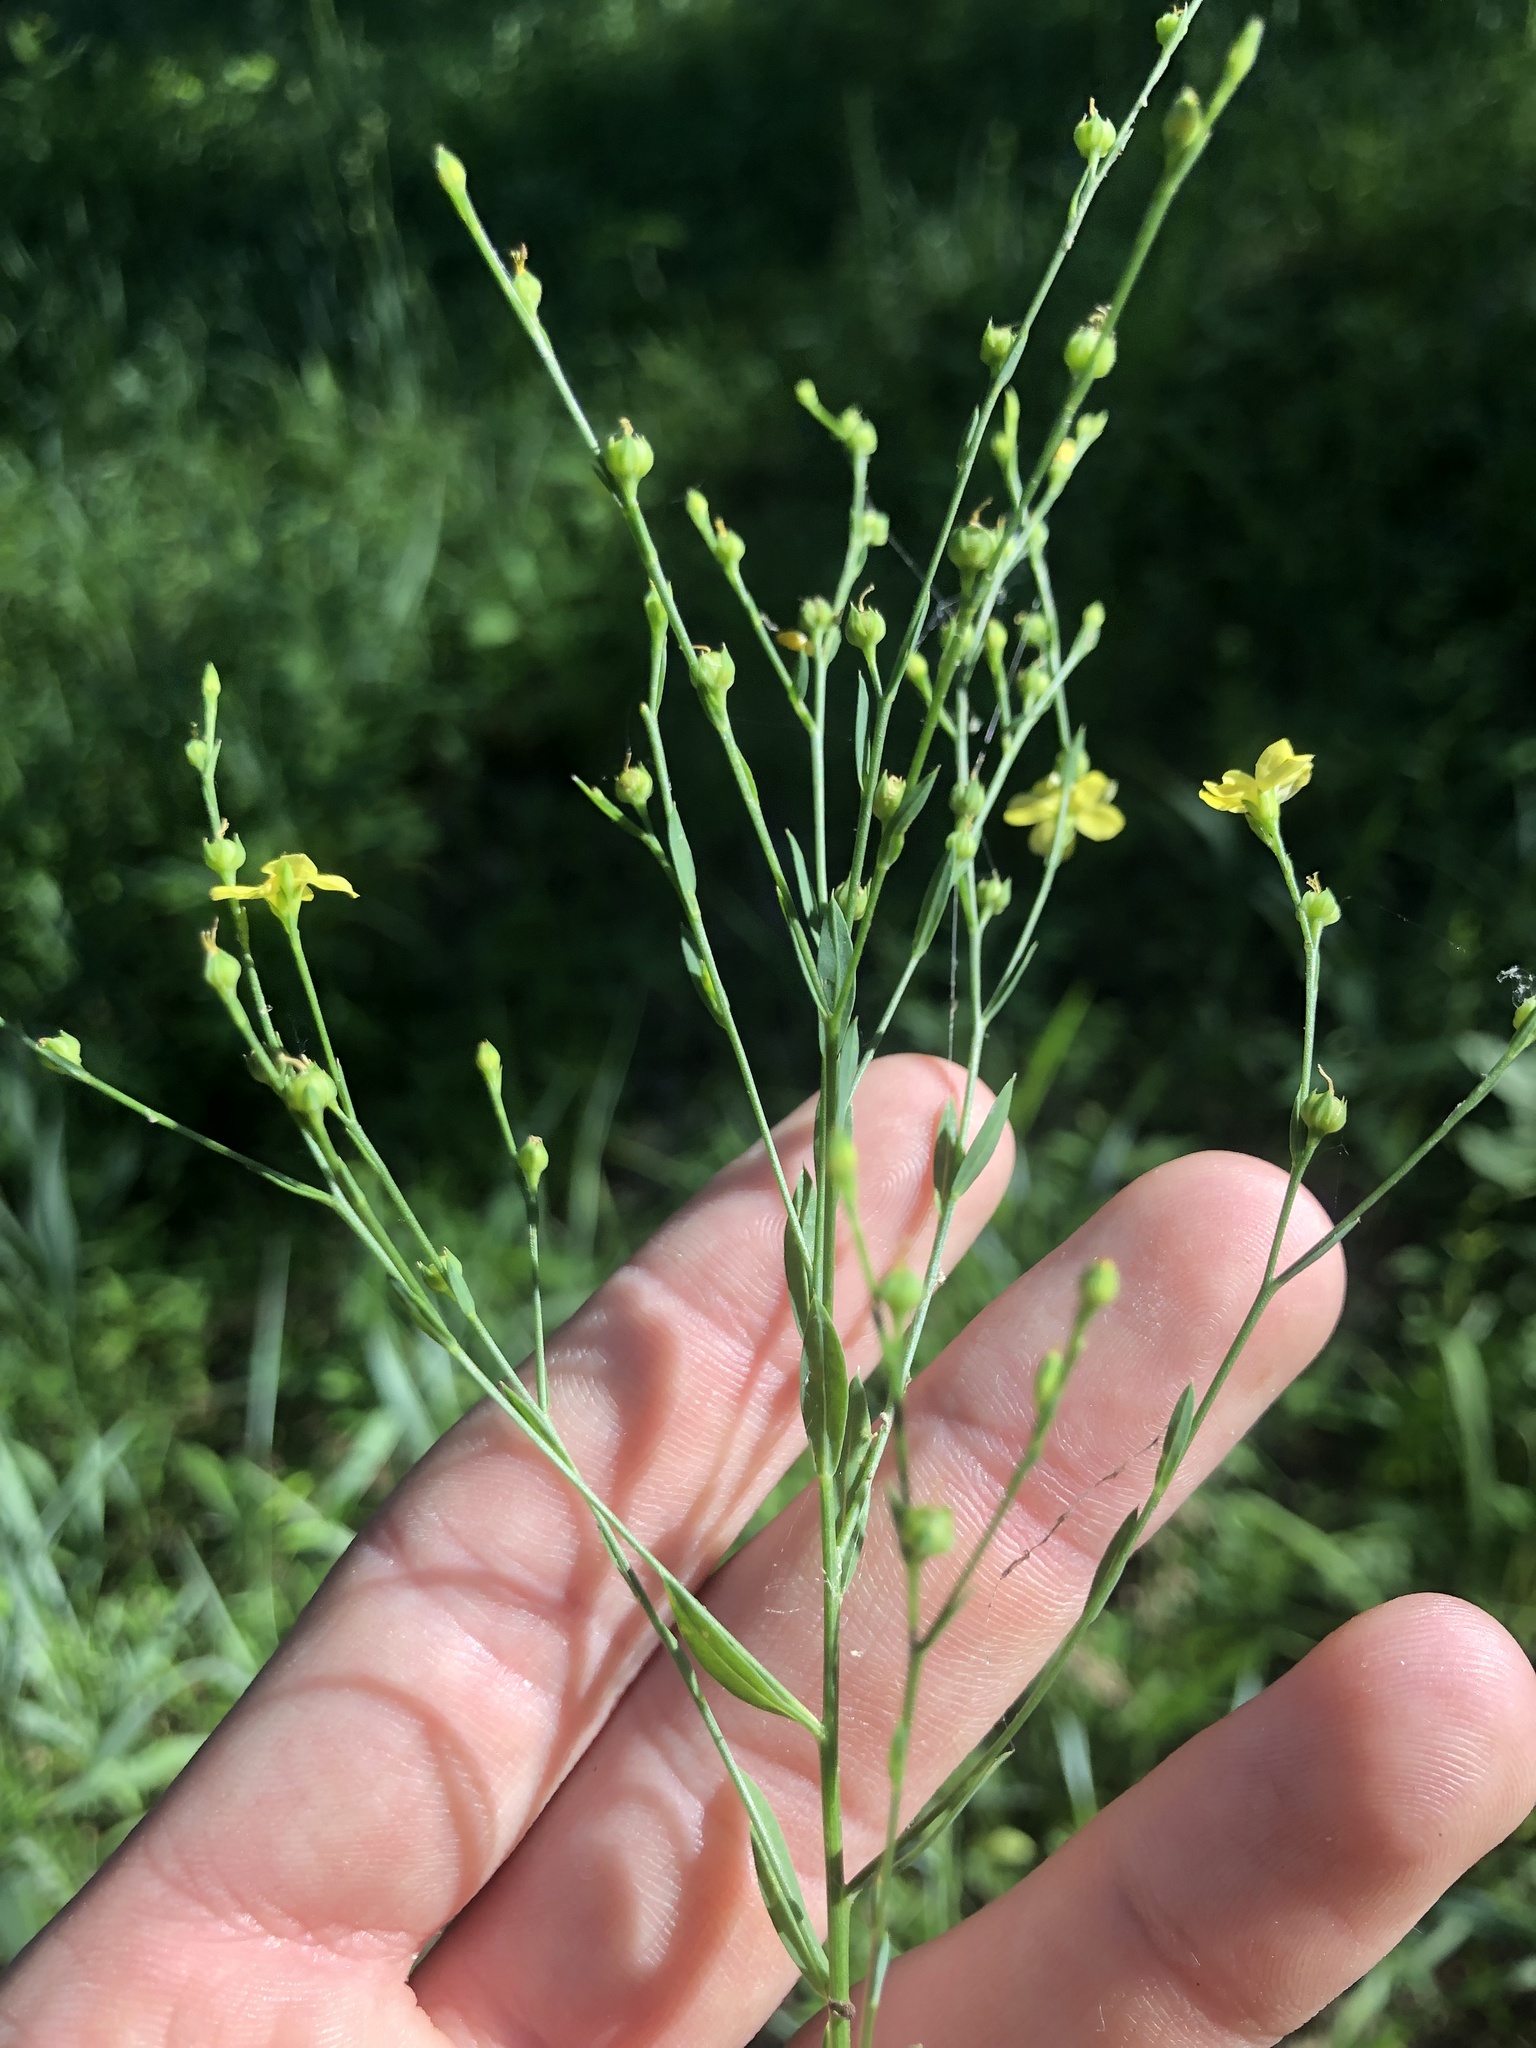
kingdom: Plantae
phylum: Tracheophyta
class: Magnoliopsida
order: Malpighiales
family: Linaceae
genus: Linum
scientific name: Linum medium
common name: Stiff yellow flax
